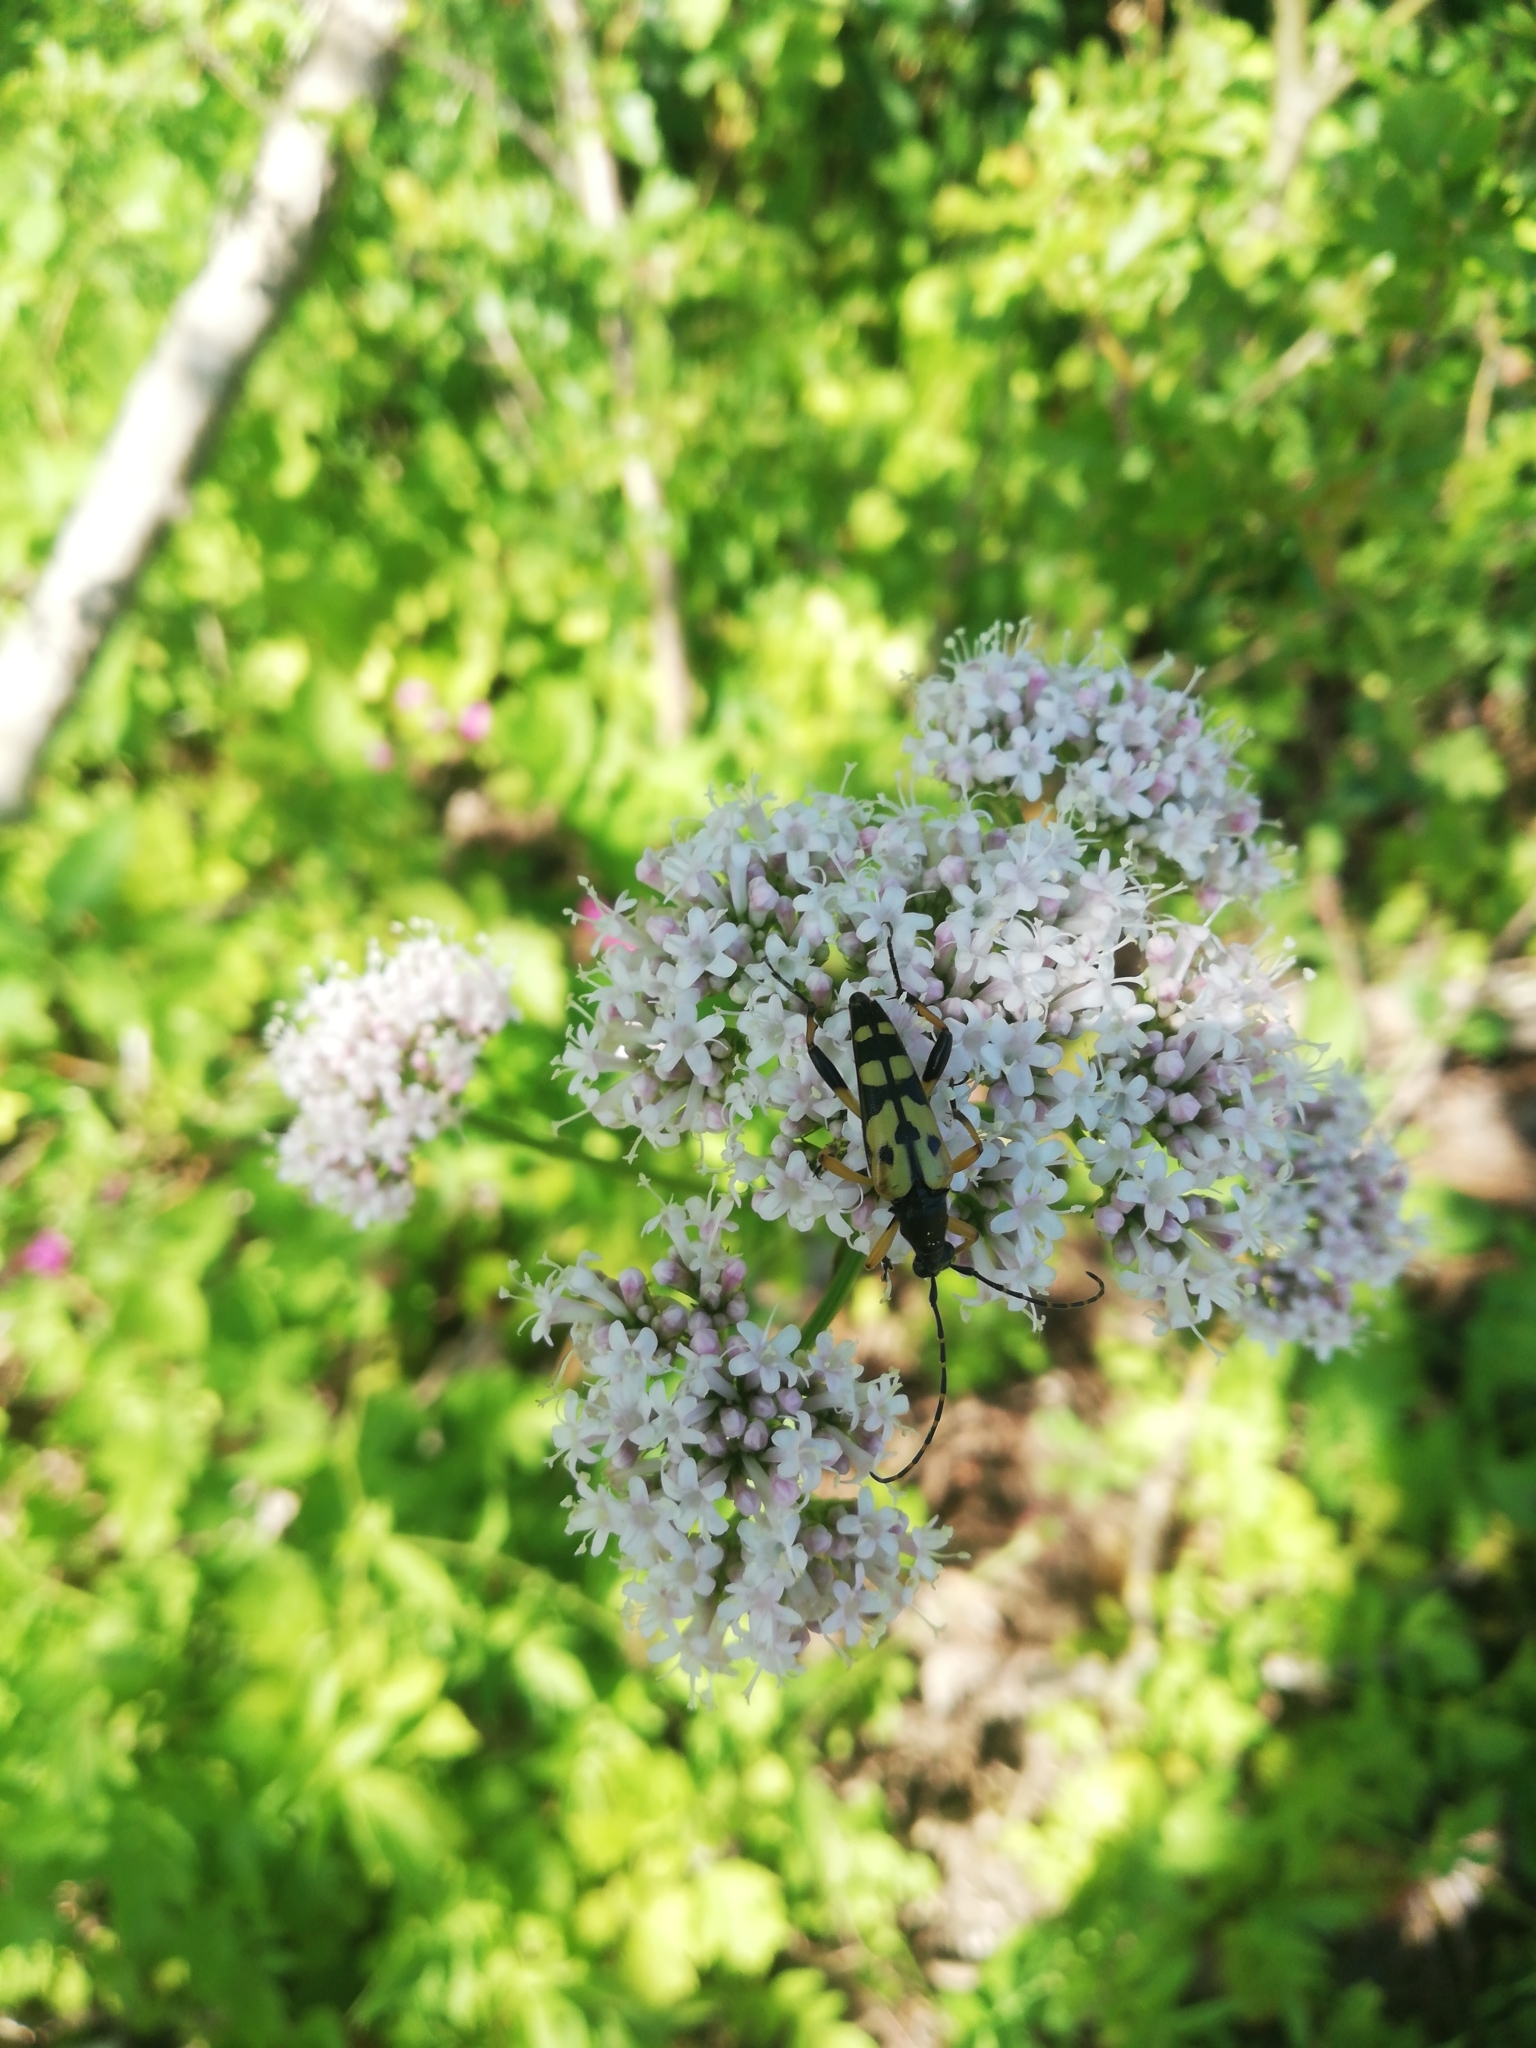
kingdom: Animalia
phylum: Arthropoda
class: Insecta
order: Coleoptera
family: Cerambycidae
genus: Rutpela
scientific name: Rutpela maculata
